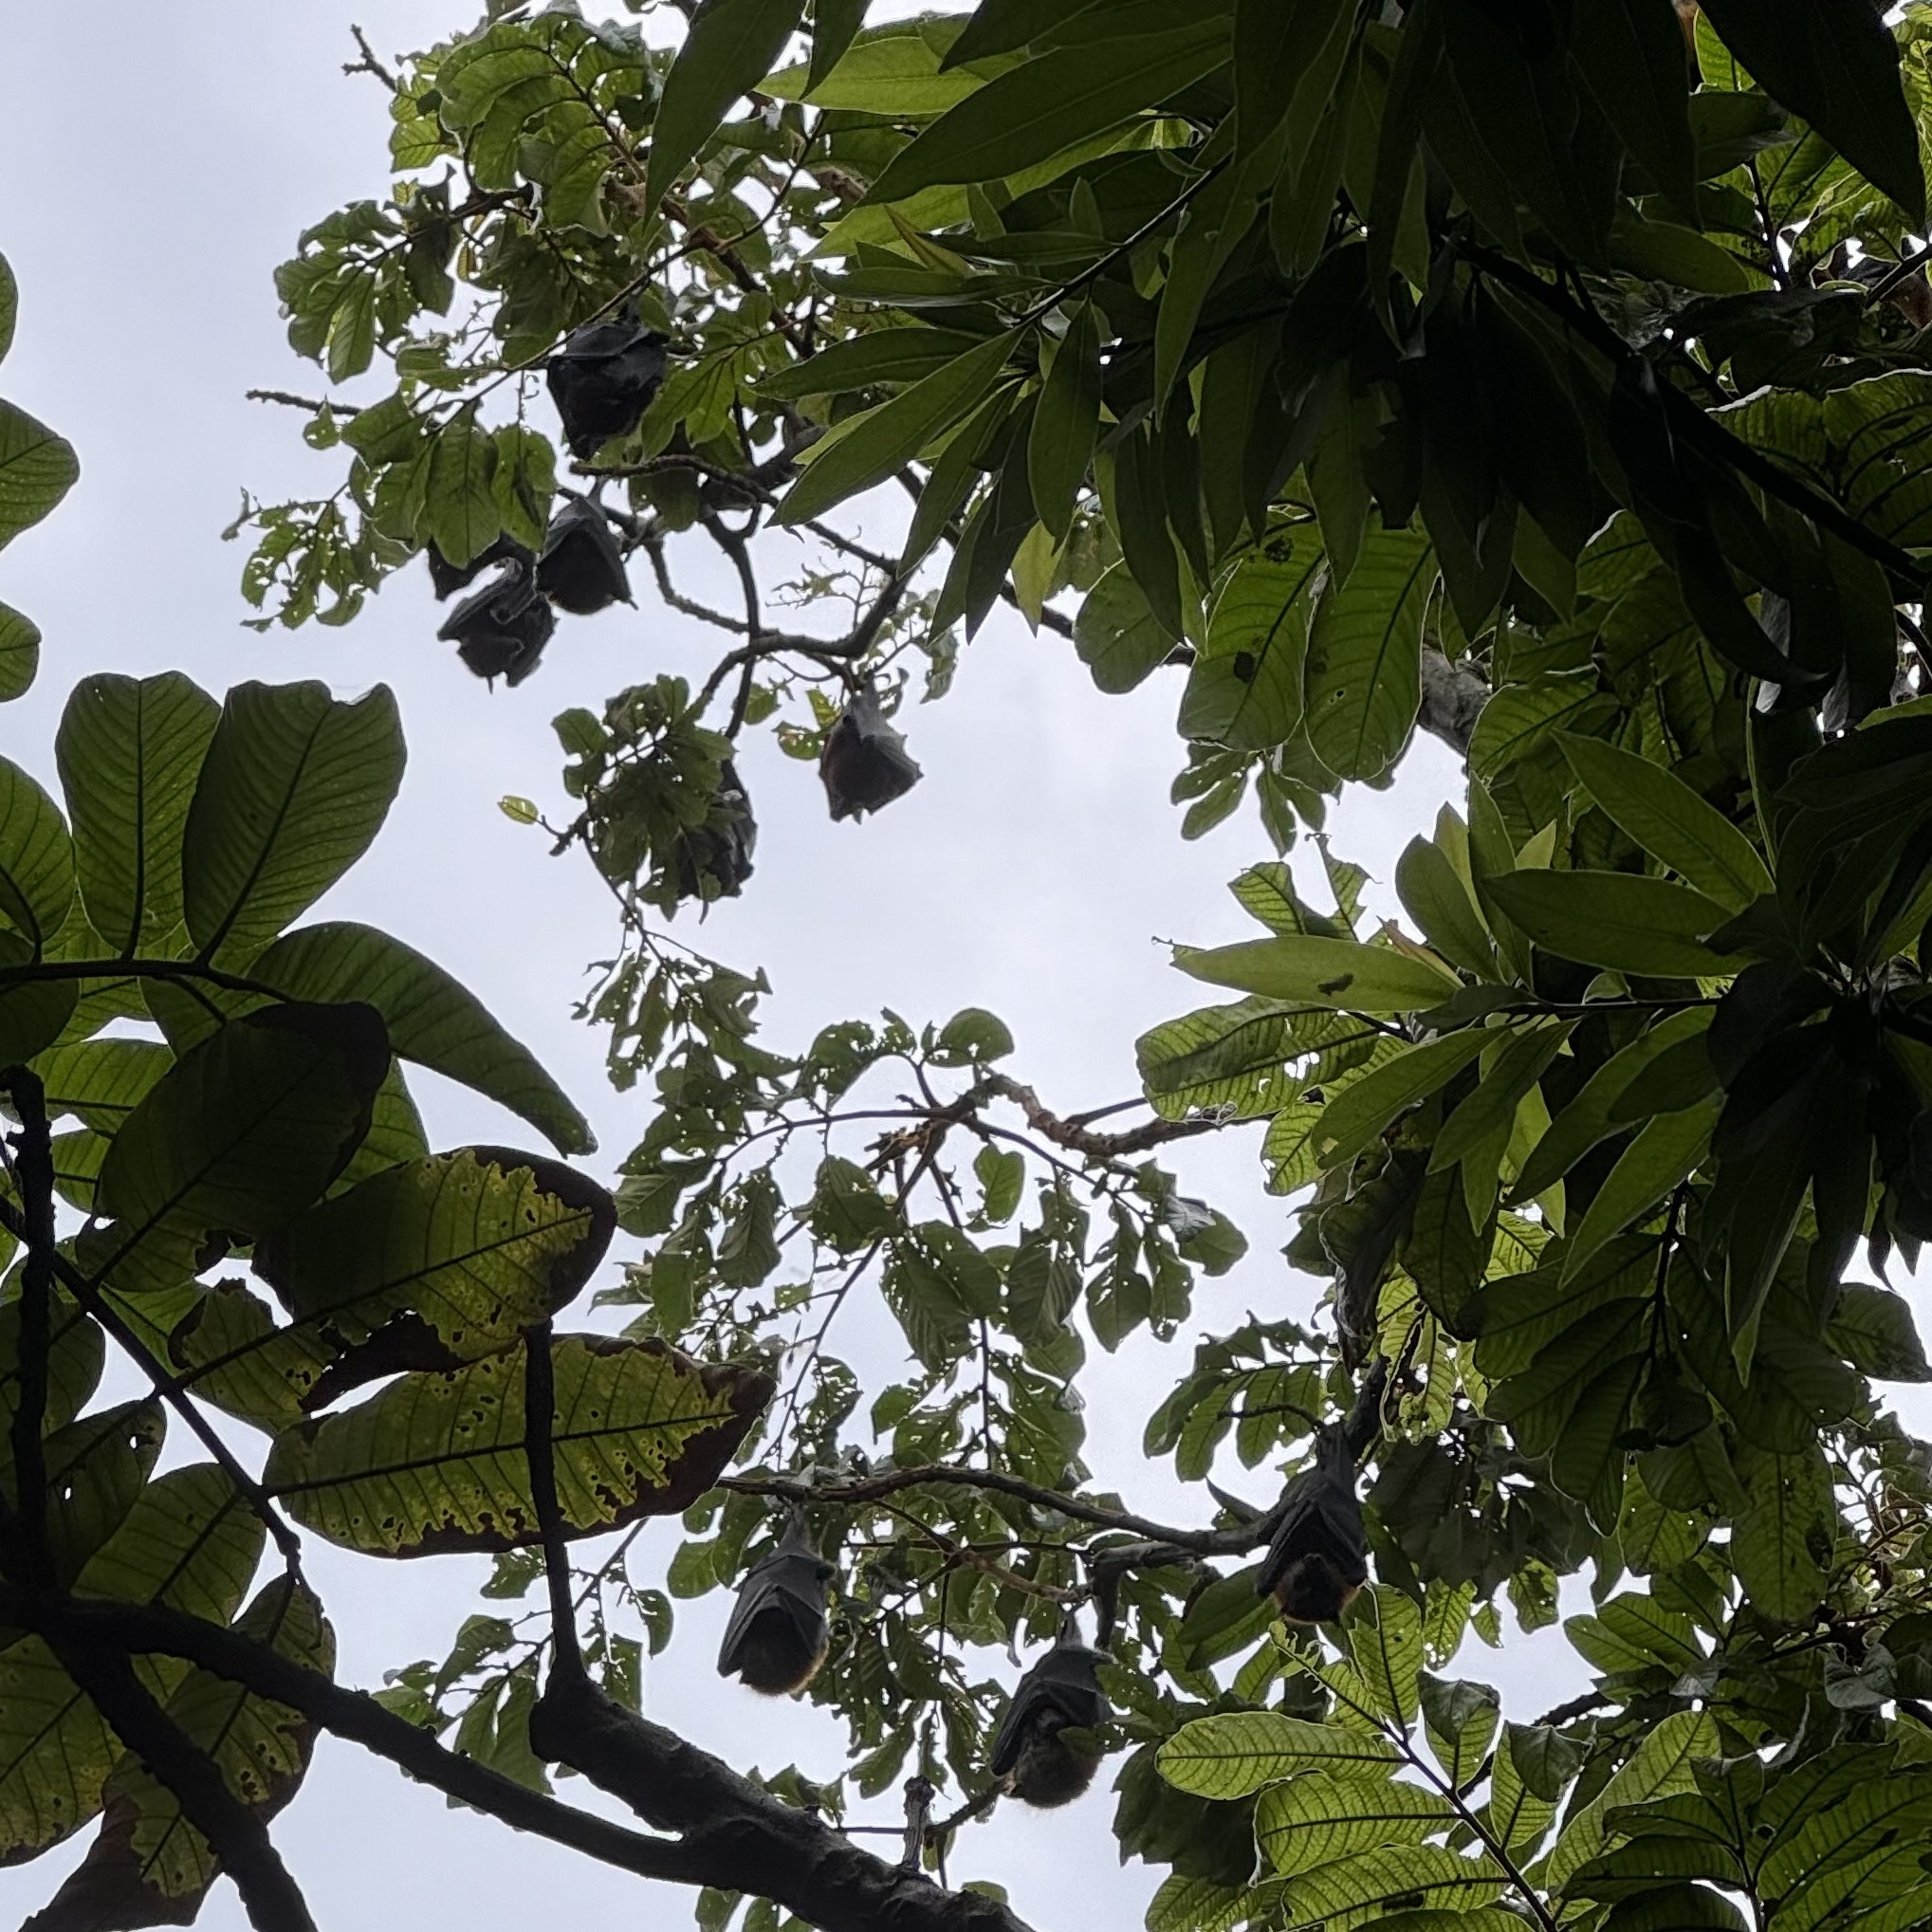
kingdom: Animalia
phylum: Chordata
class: Mammalia
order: Chiroptera
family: Pteropodidae
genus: Pteropus
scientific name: Pteropus alecto
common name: Black flying fox
